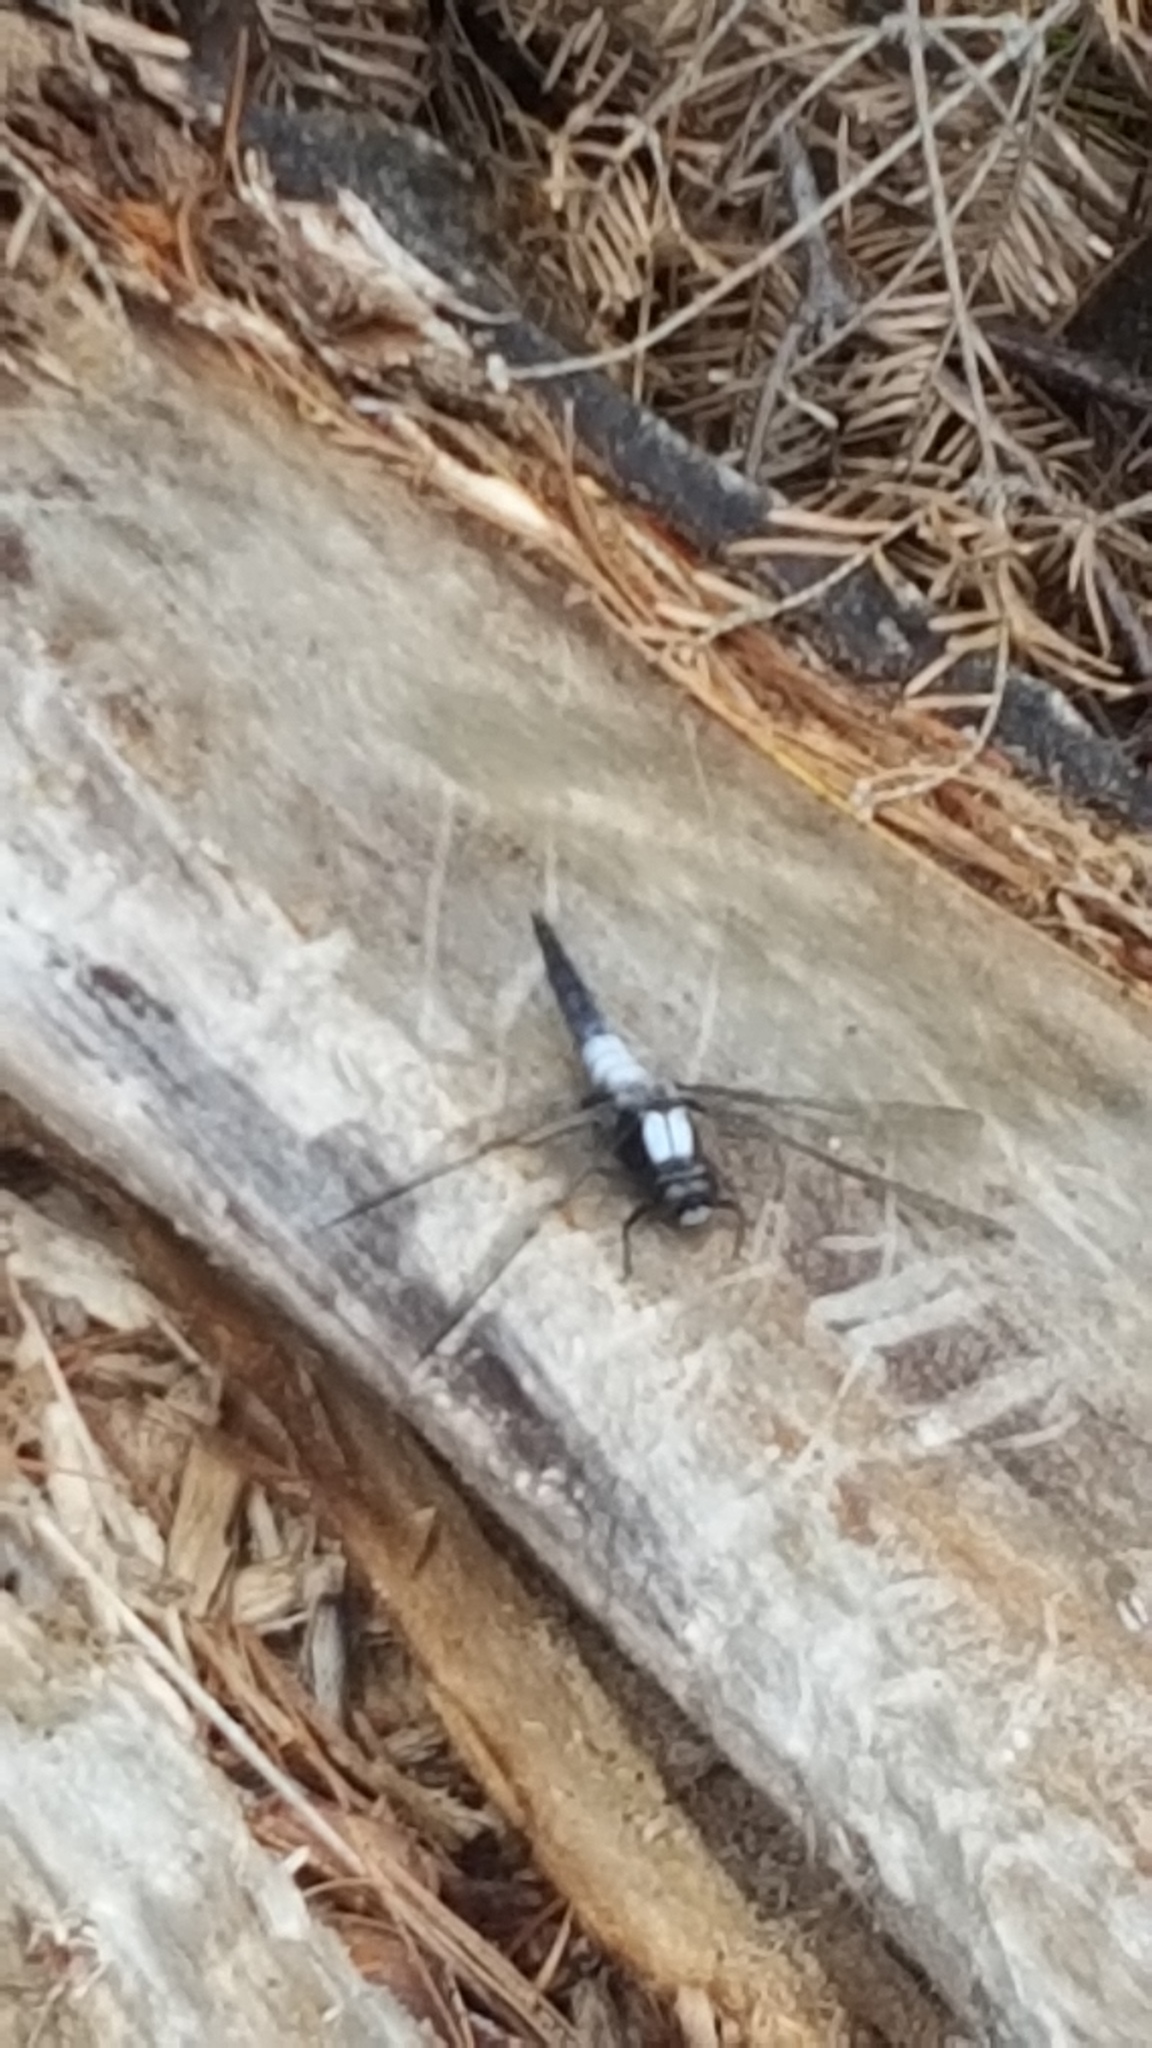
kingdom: Animalia
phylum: Arthropoda
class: Insecta
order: Odonata
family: Libellulidae
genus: Ladona
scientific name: Ladona julia
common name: Chalk-fronted corporal
